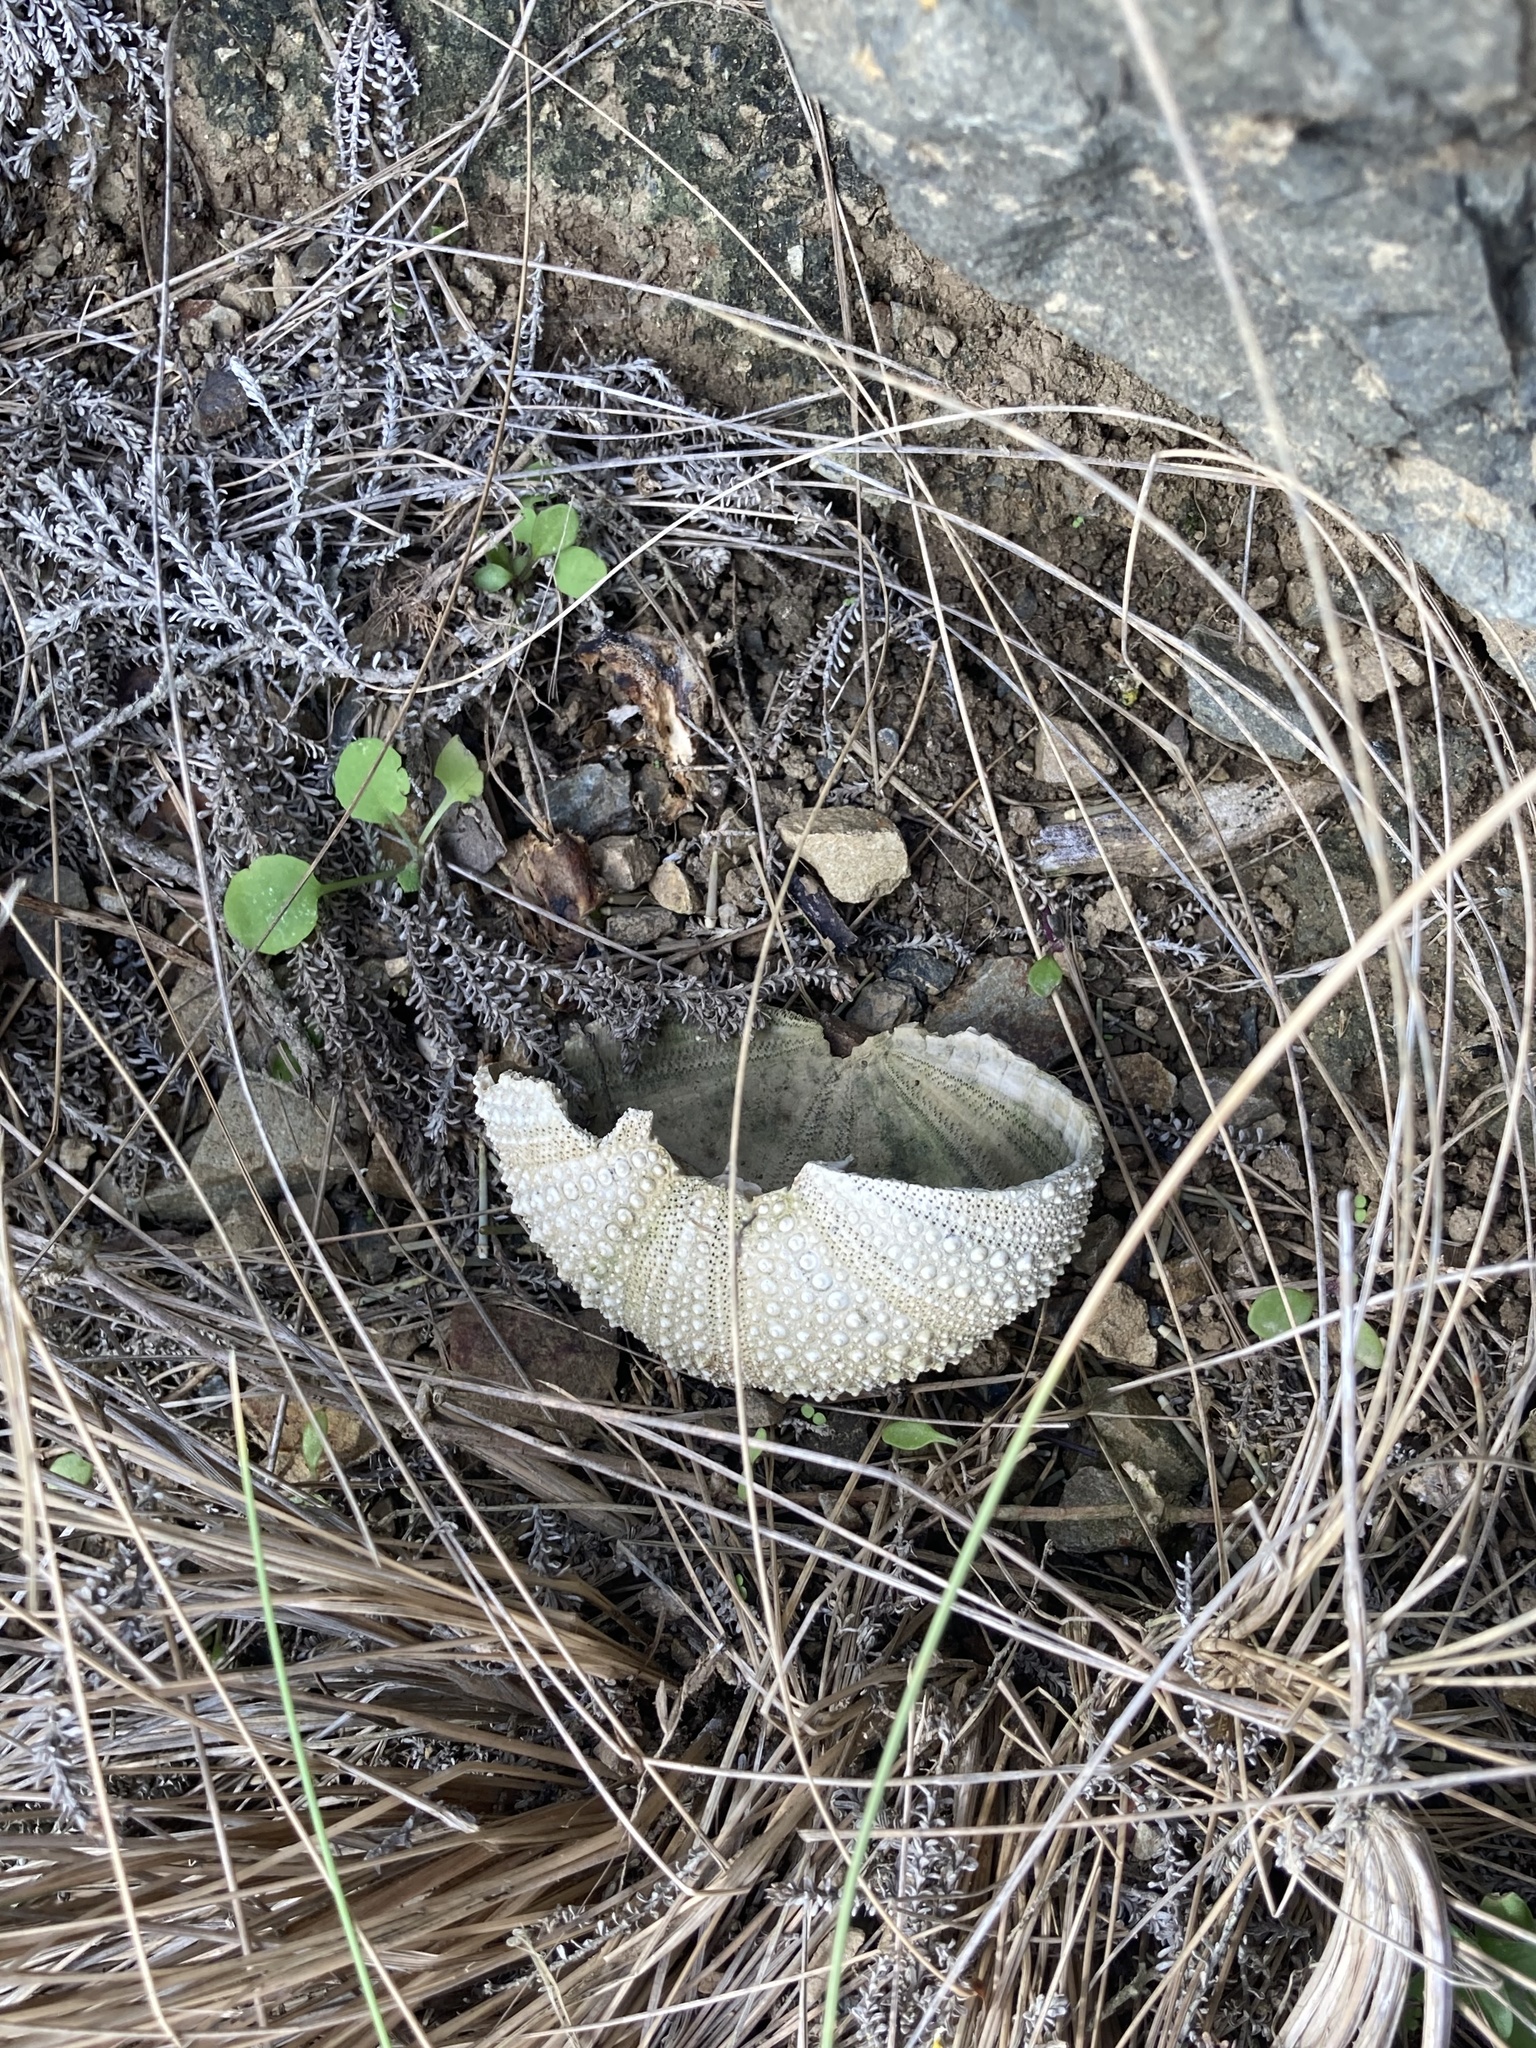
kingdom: Animalia
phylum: Echinodermata
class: Echinoidea
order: Camarodonta
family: Echinometridae
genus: Evechinus
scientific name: Evechinus chloroticus
